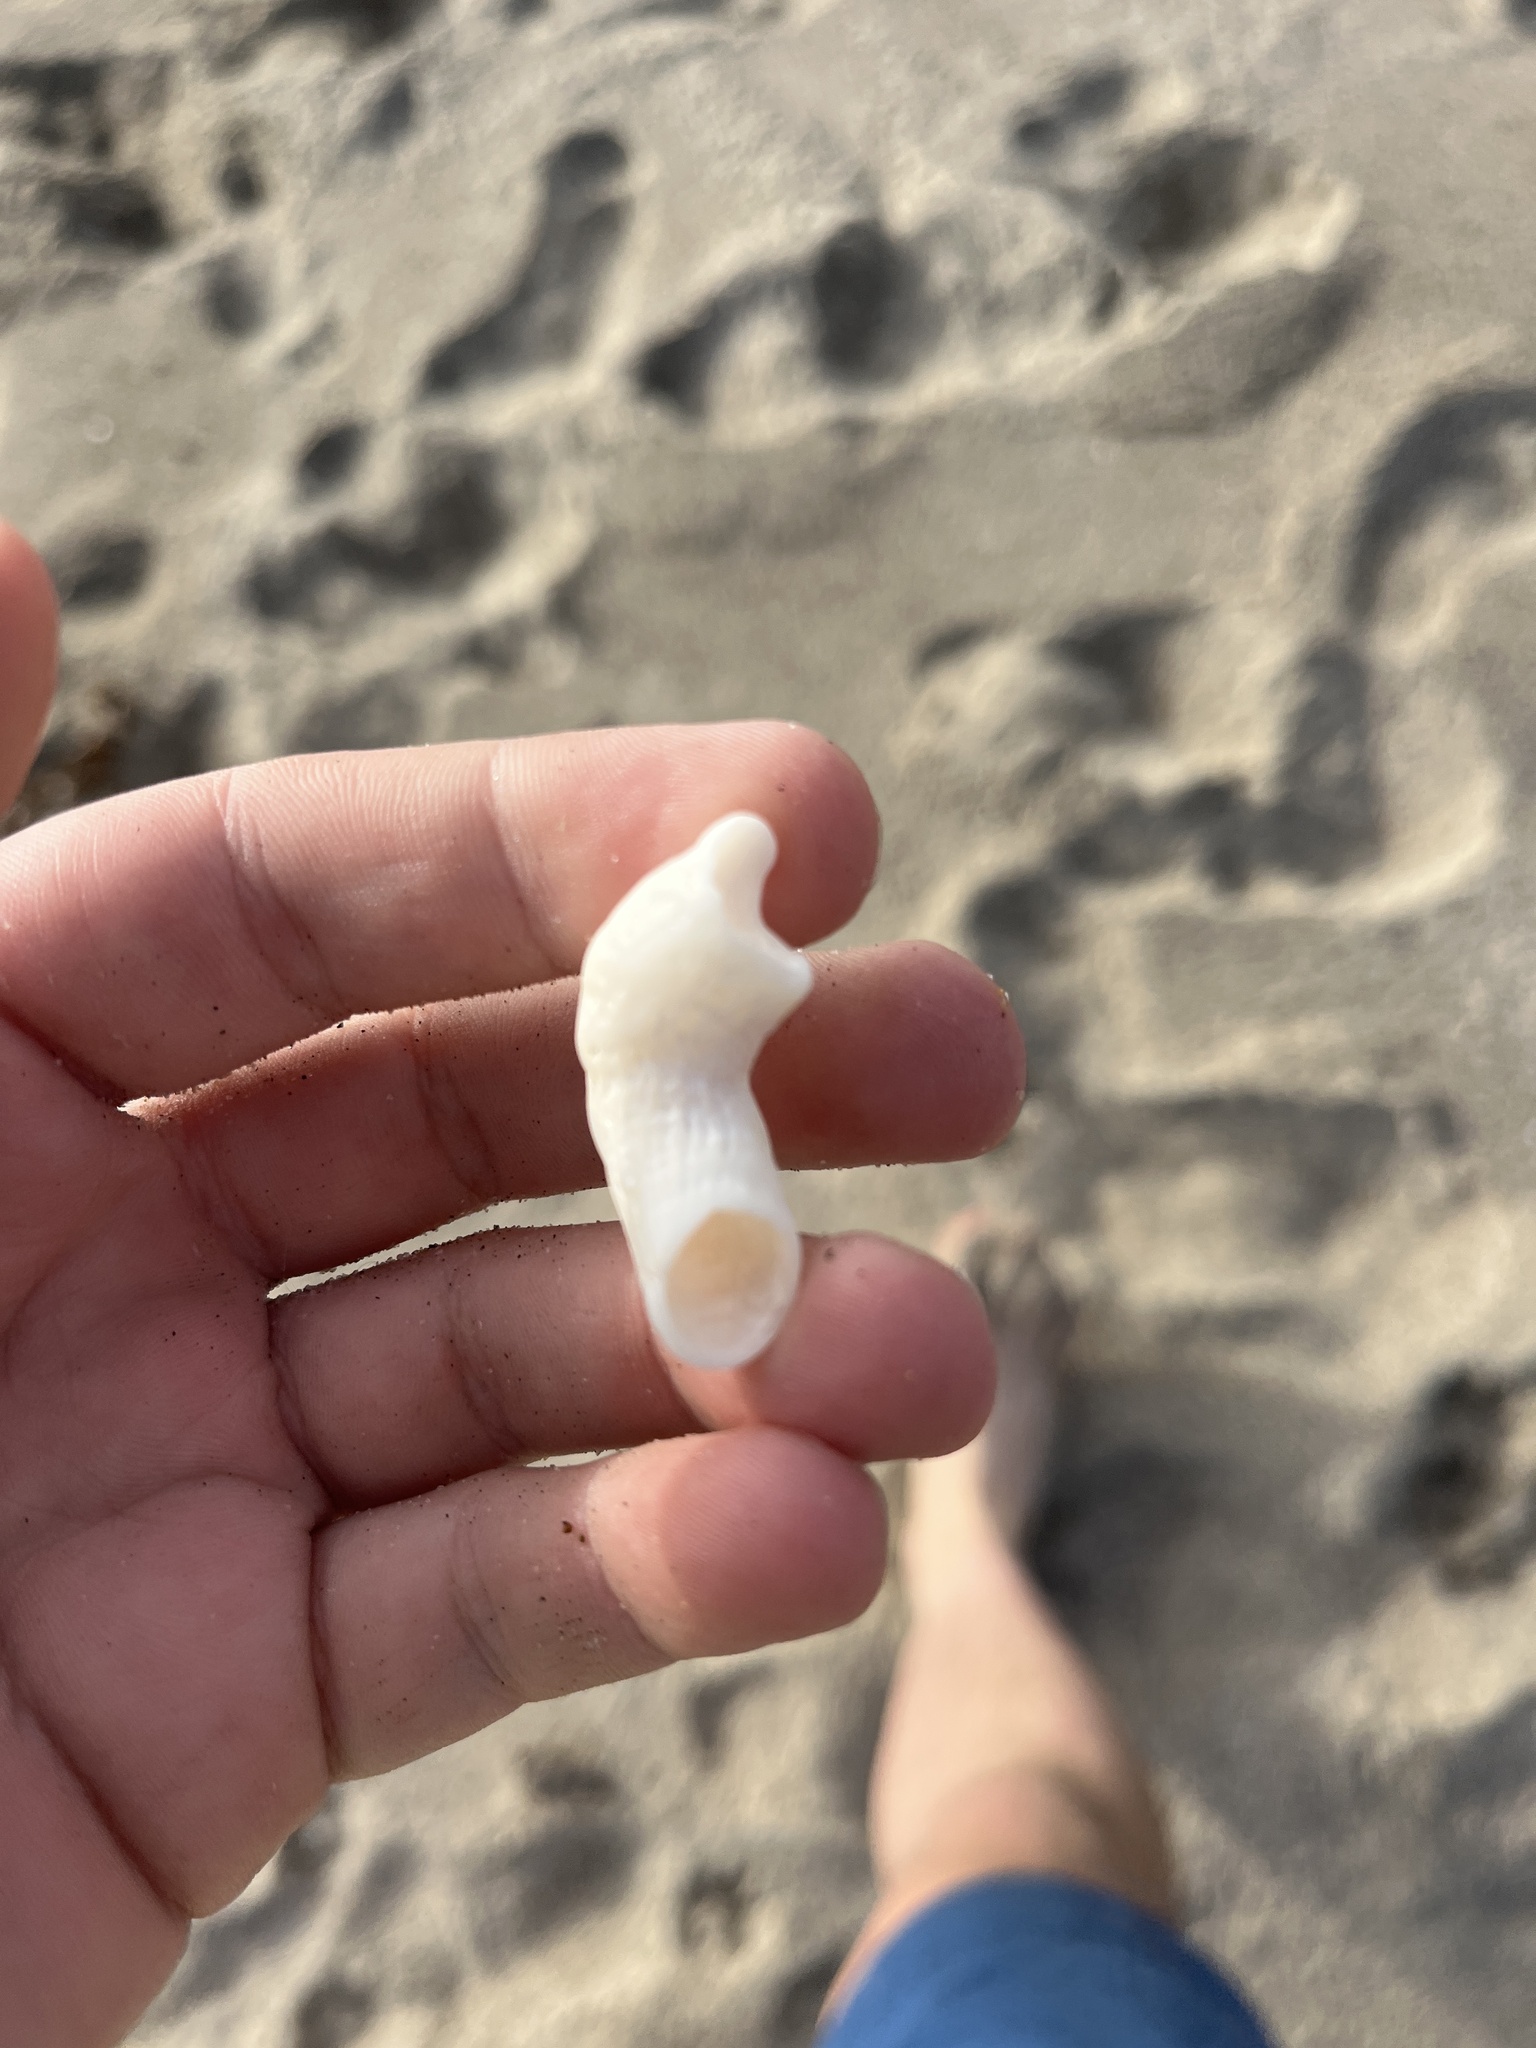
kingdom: Animalia
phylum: Mollusca
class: Gastropoda
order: Littorinimorpha
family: Vermetidae
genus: Thylacodes
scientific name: Thylacodes squamigerus
